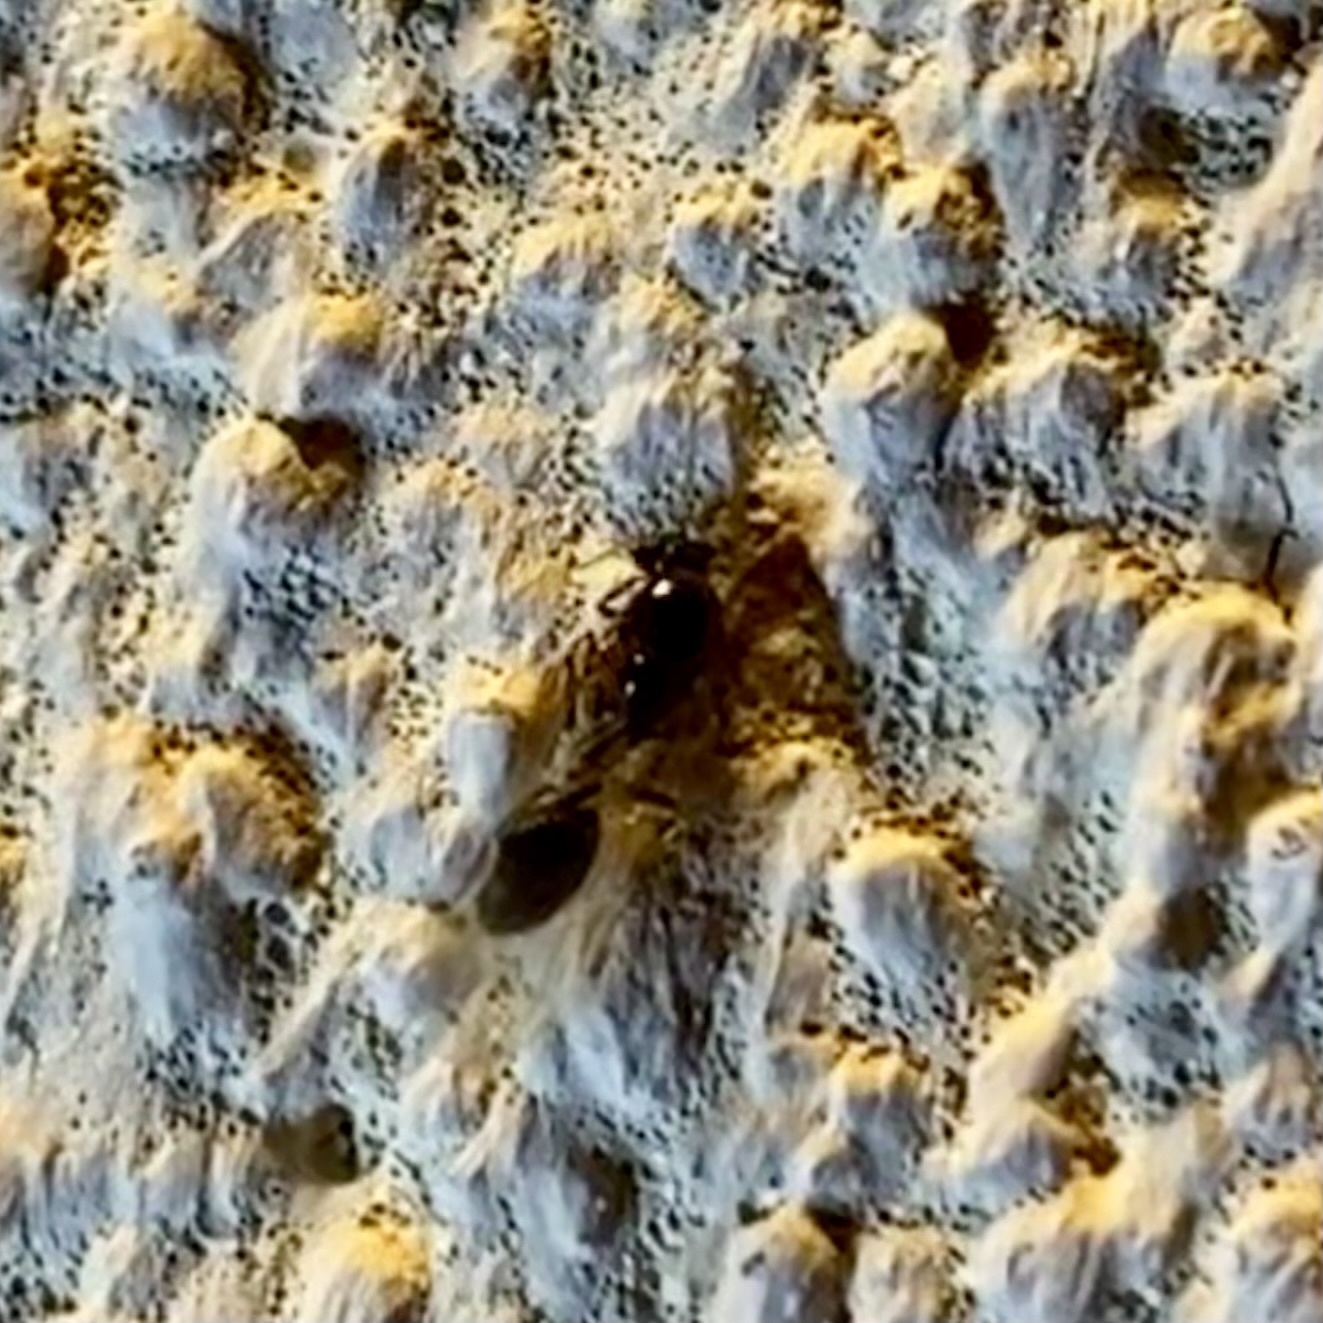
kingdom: Animalia
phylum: Arthropoda
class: Insecta
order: Hymenoptera
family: Formicidae
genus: Myrmicinae
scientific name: Myrmicinae
